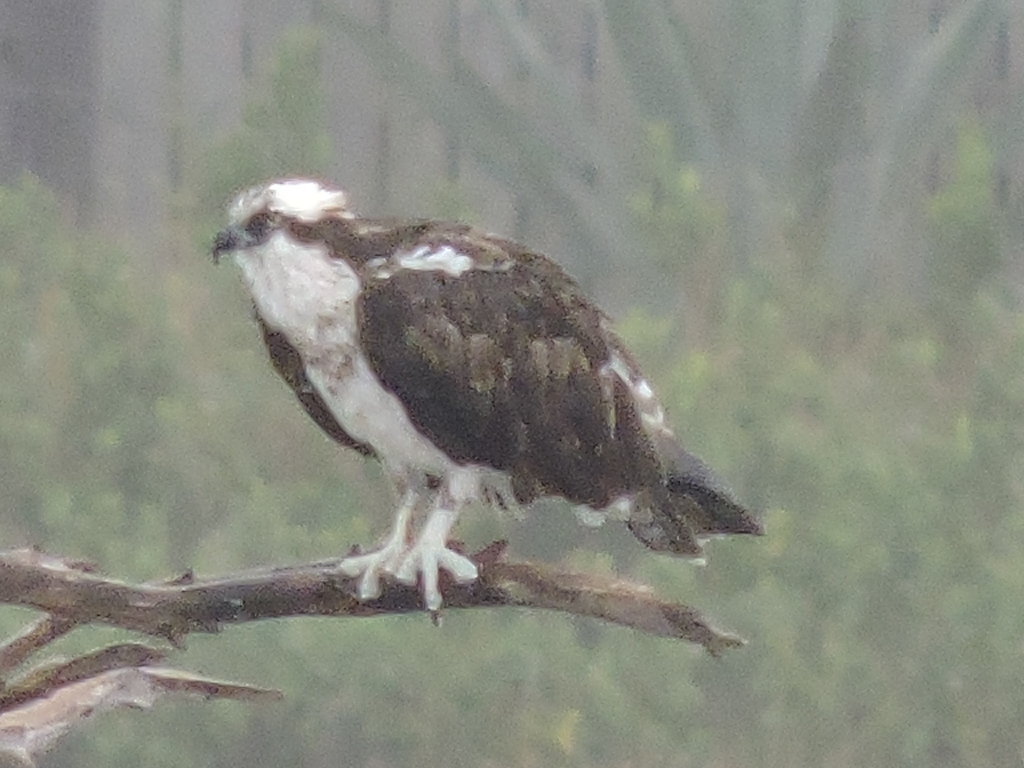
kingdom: Animalia
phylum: Chordata
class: Aves
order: Accipitriformes
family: Pandionidae
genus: Pandion
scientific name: Pandion haliaetus
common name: Osprey
